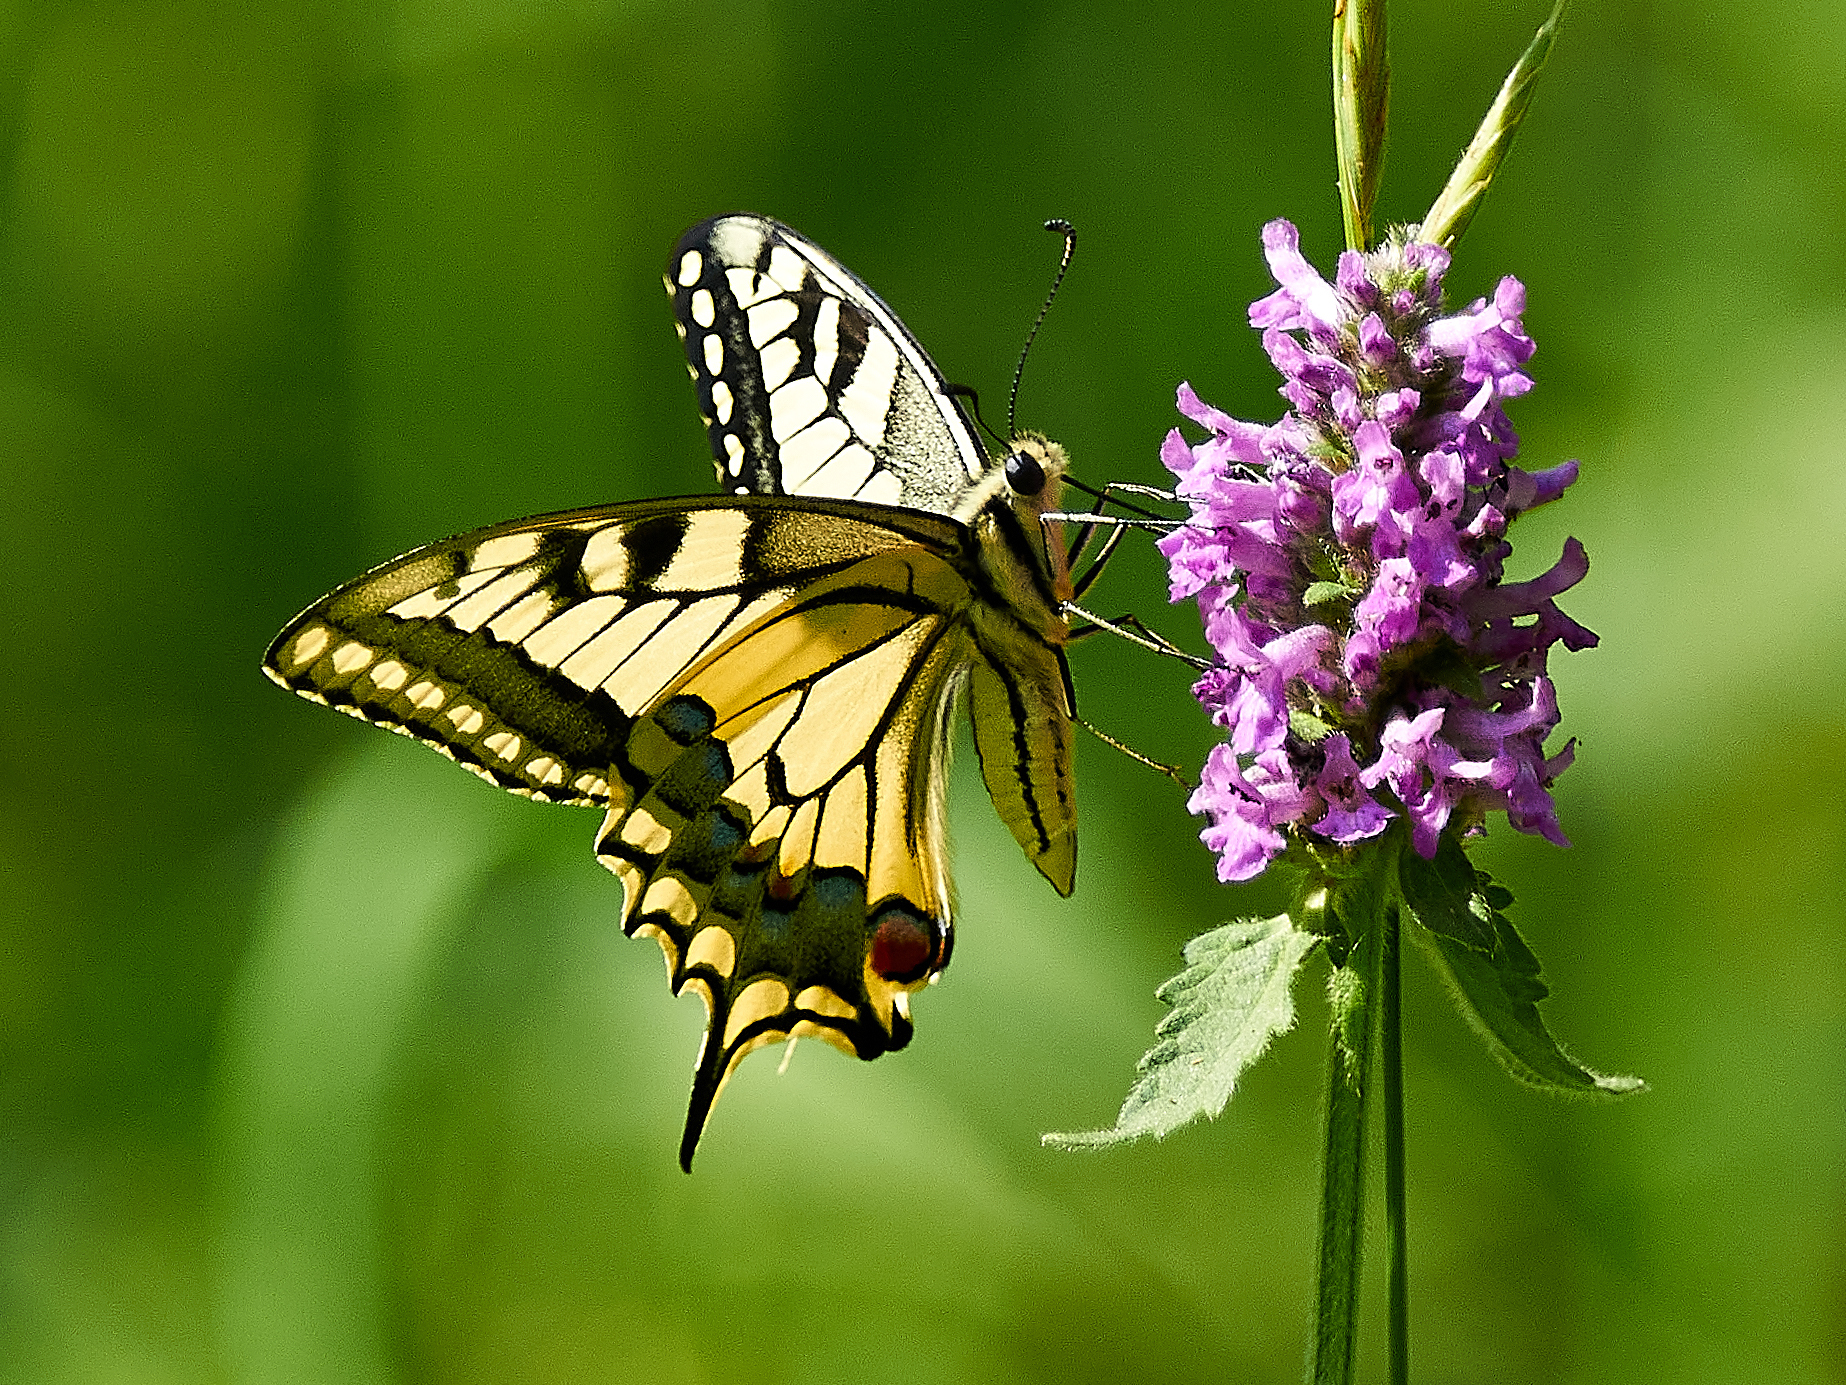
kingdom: Animalia
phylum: Arthropoda
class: Insecta
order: Lepidoptera
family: Papilionidae
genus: Papilio
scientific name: Papilio machaon
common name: Swallowtail
